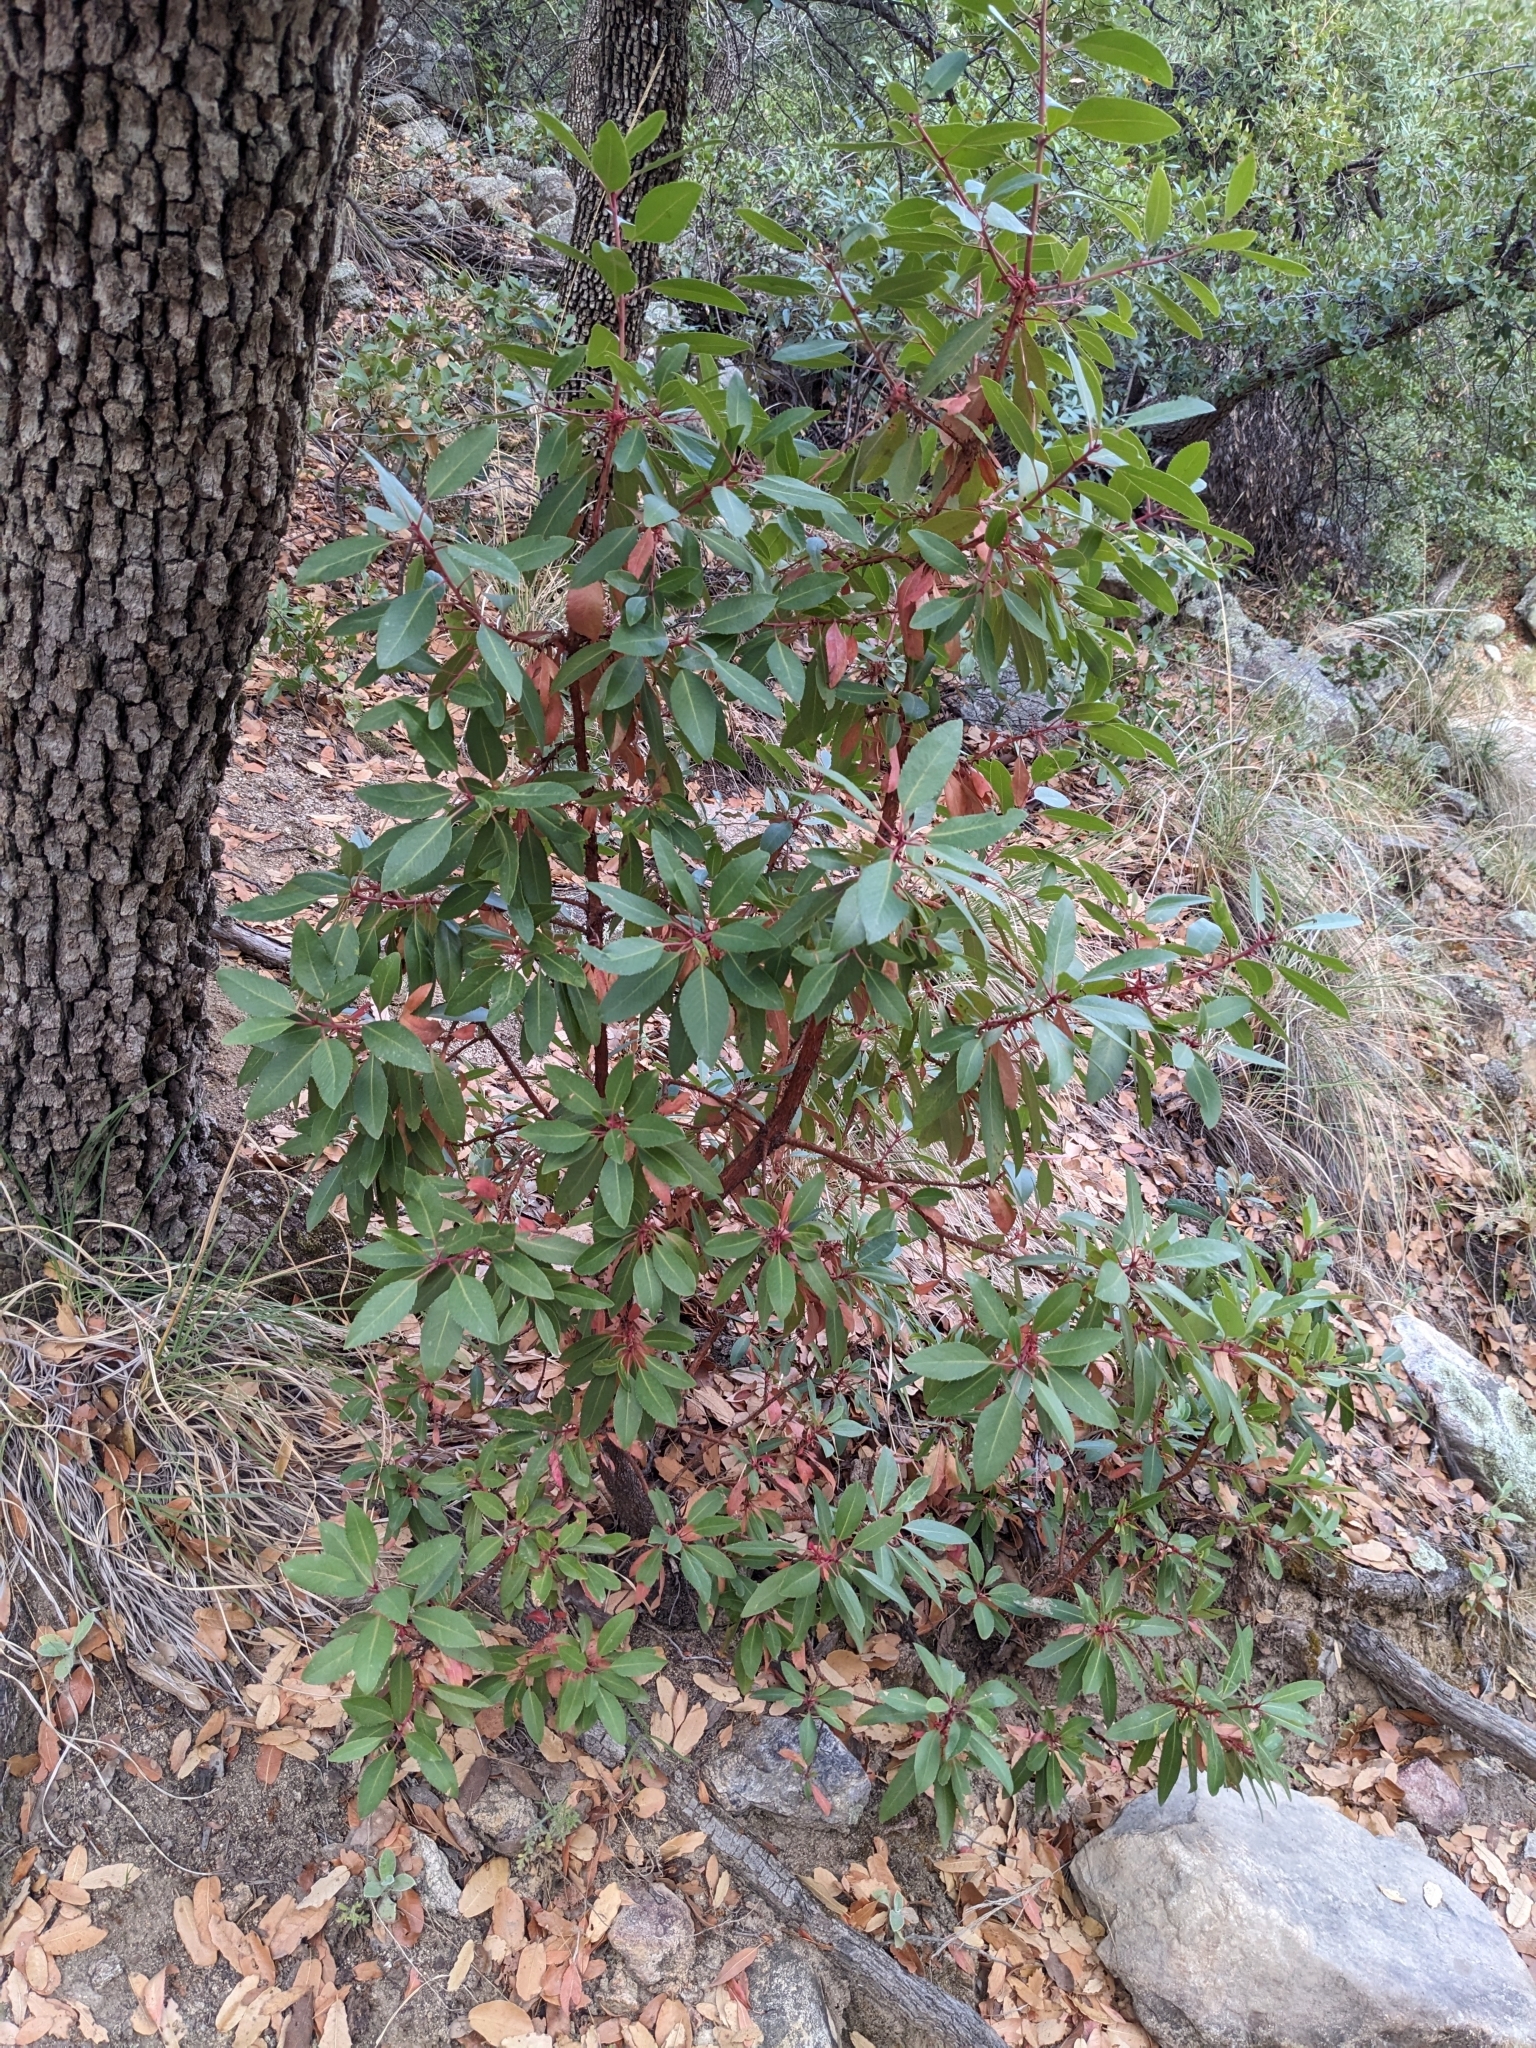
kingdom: Plantae
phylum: Tracheophyta
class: Magnoliopsida
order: Ericales
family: Ericaceae
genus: Arbutus
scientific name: Arbutus arizonica
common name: Arizona madrone
